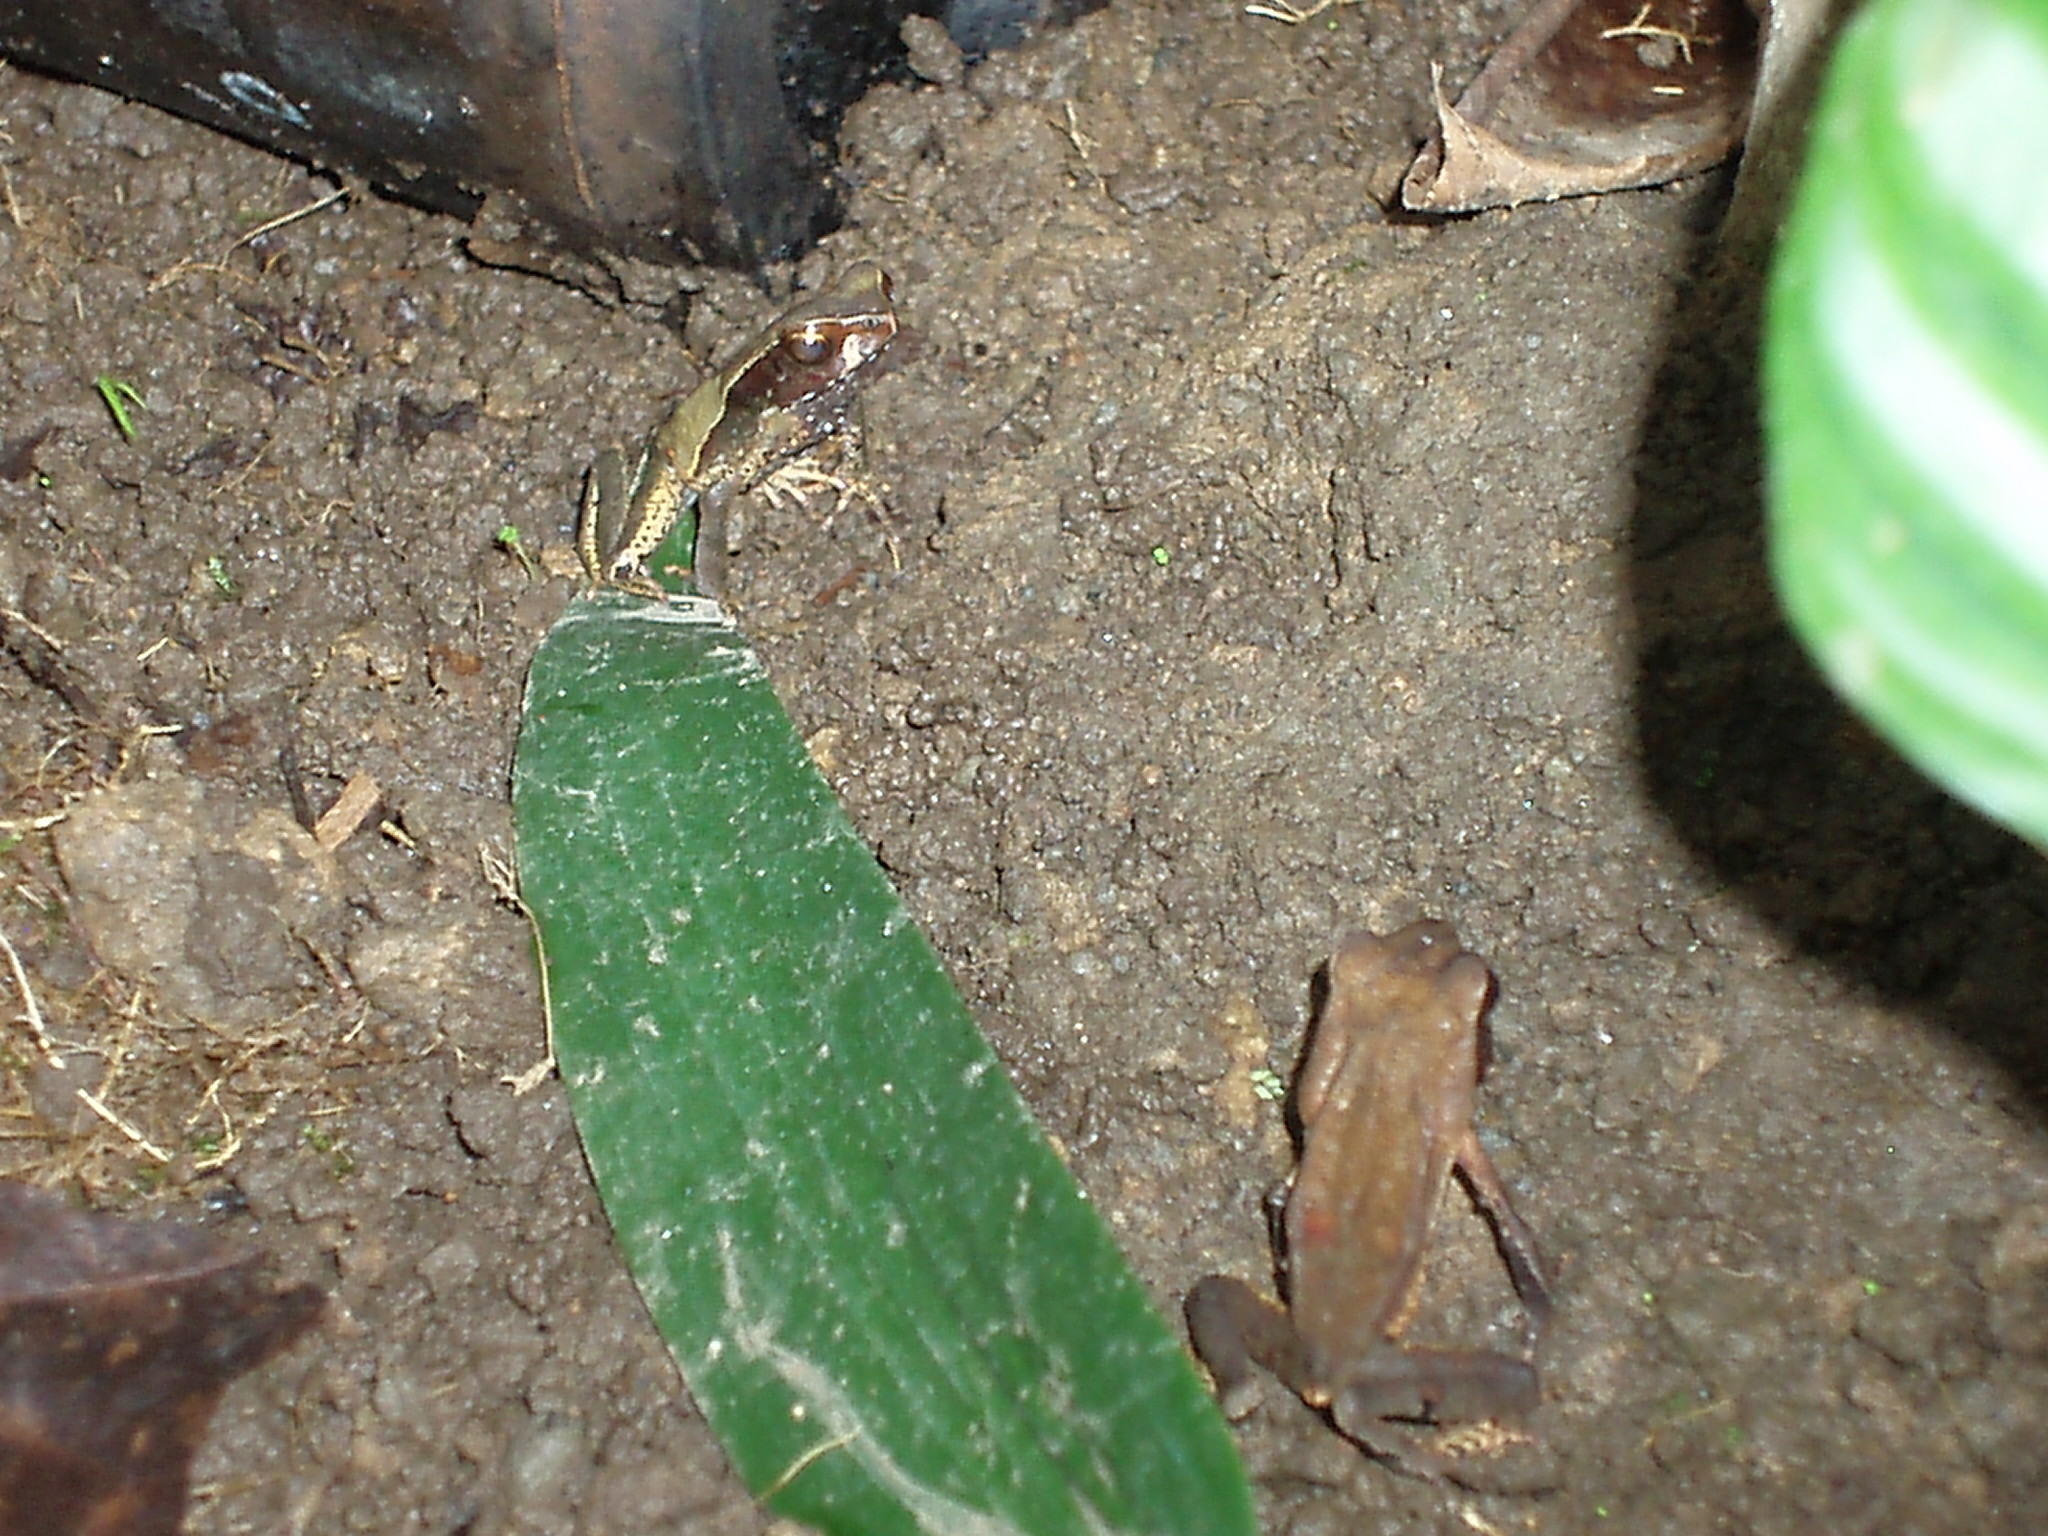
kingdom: Animalia
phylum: Chordata
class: Amphibia
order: Anura
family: Bufonidae
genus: Rhaebo
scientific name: Rhaebo haematiticus
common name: Truando toad
